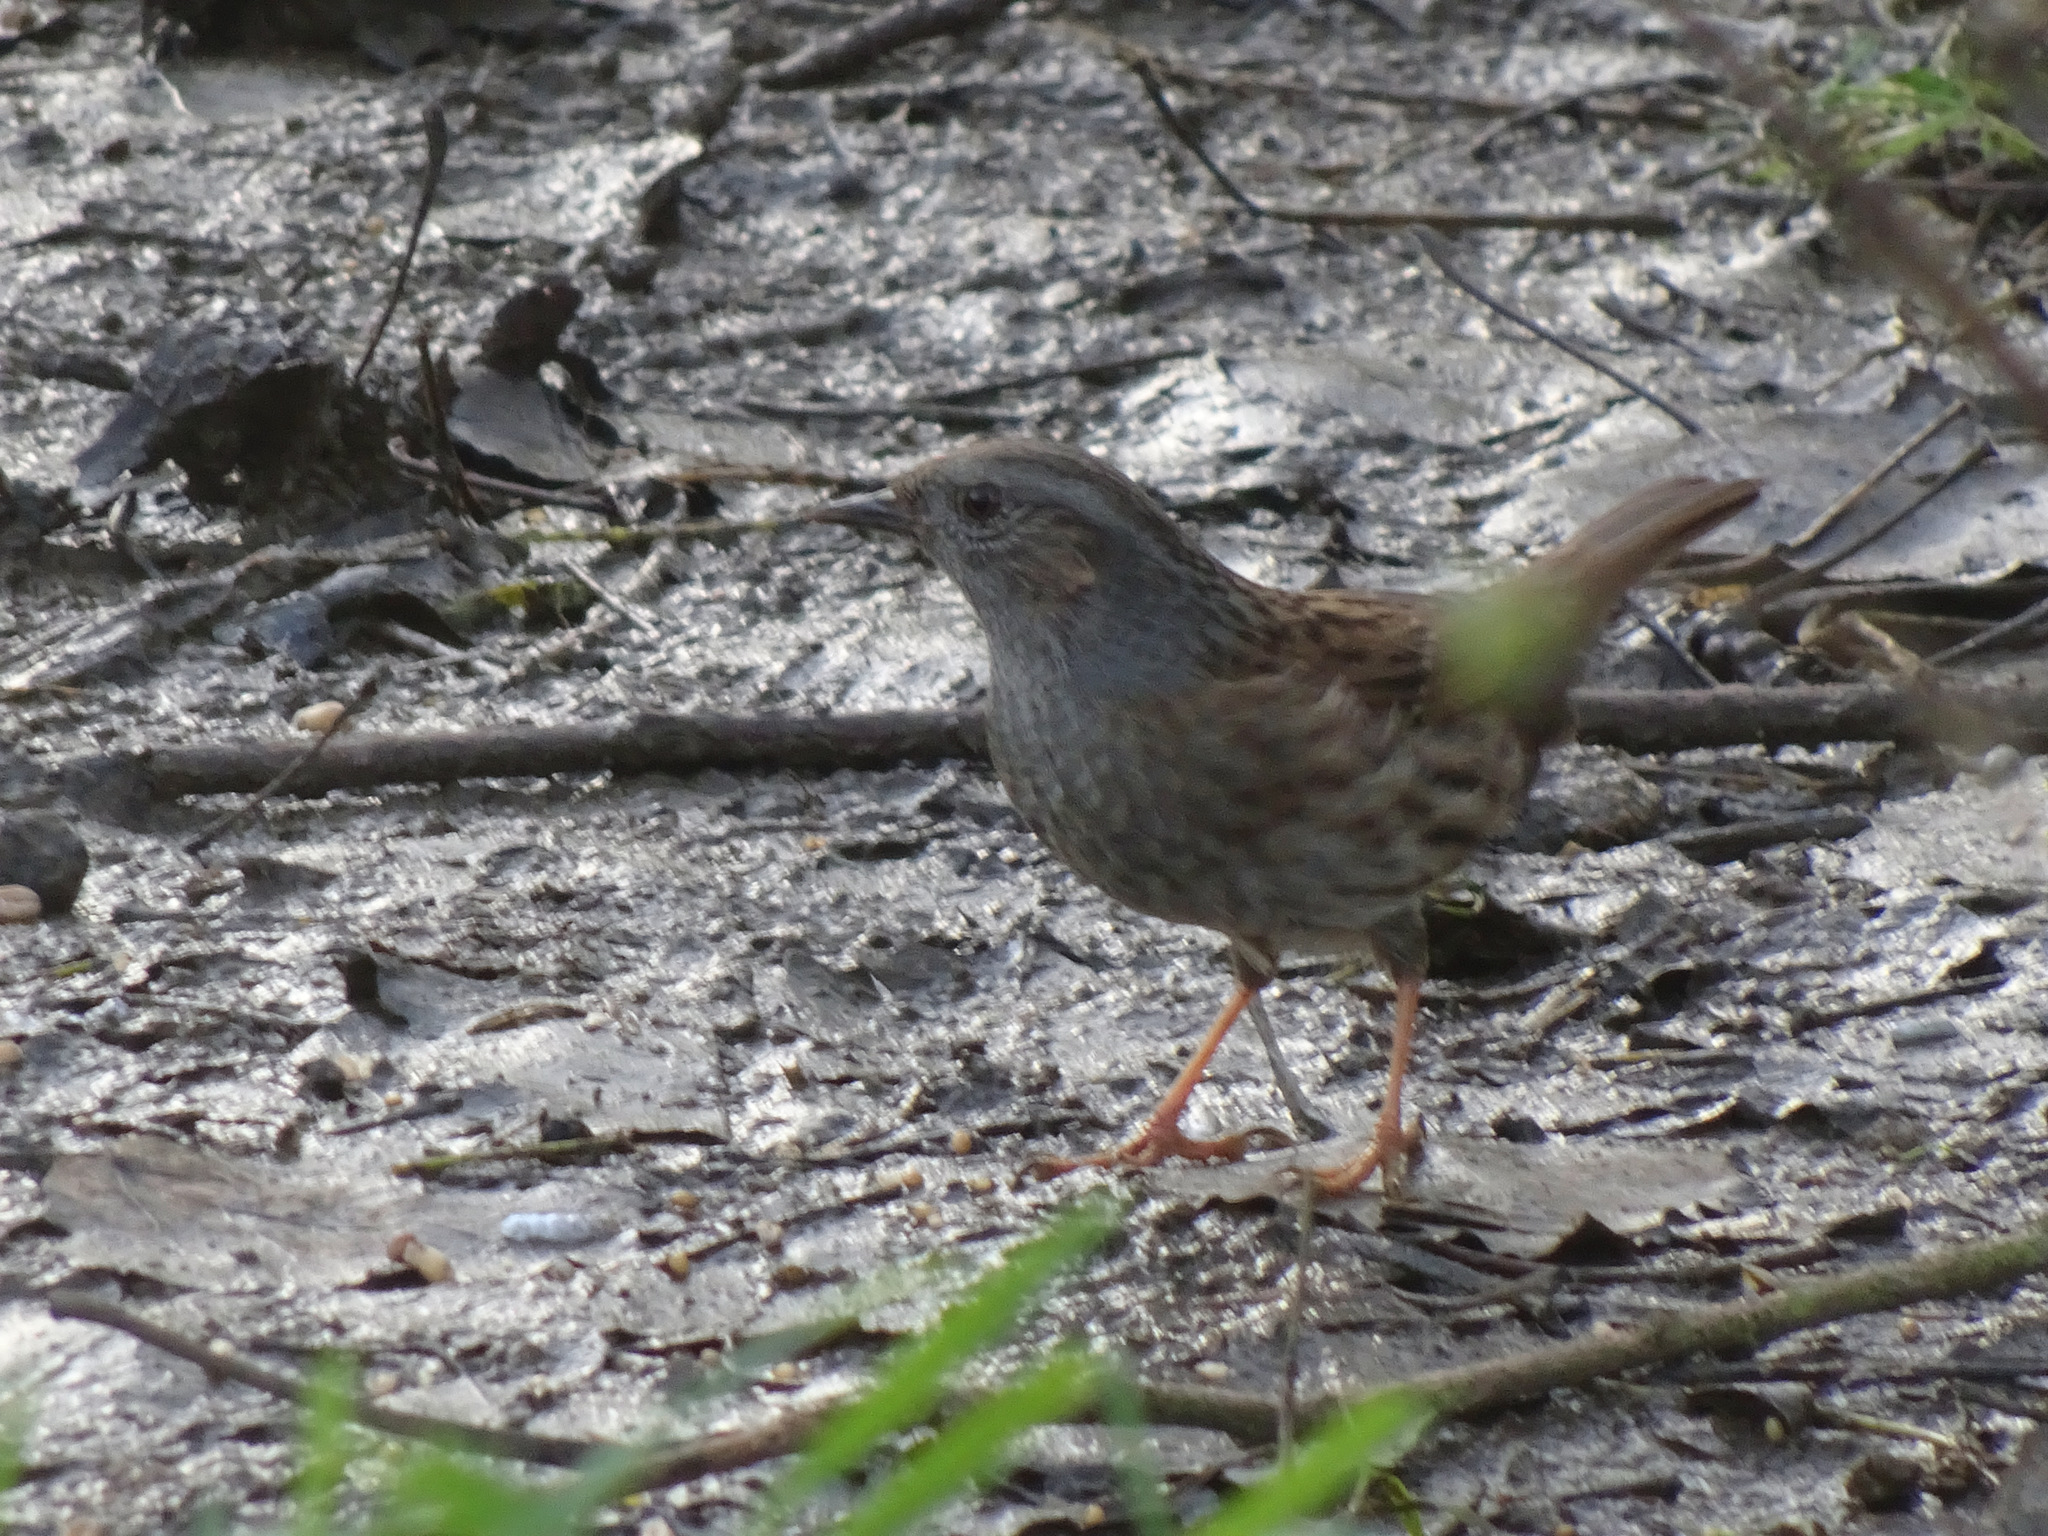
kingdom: Animalia
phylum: Chordata
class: Aves
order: Passeriformes
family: Prunellidae
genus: Prunella
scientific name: Prunella modularis
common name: Dunnock
